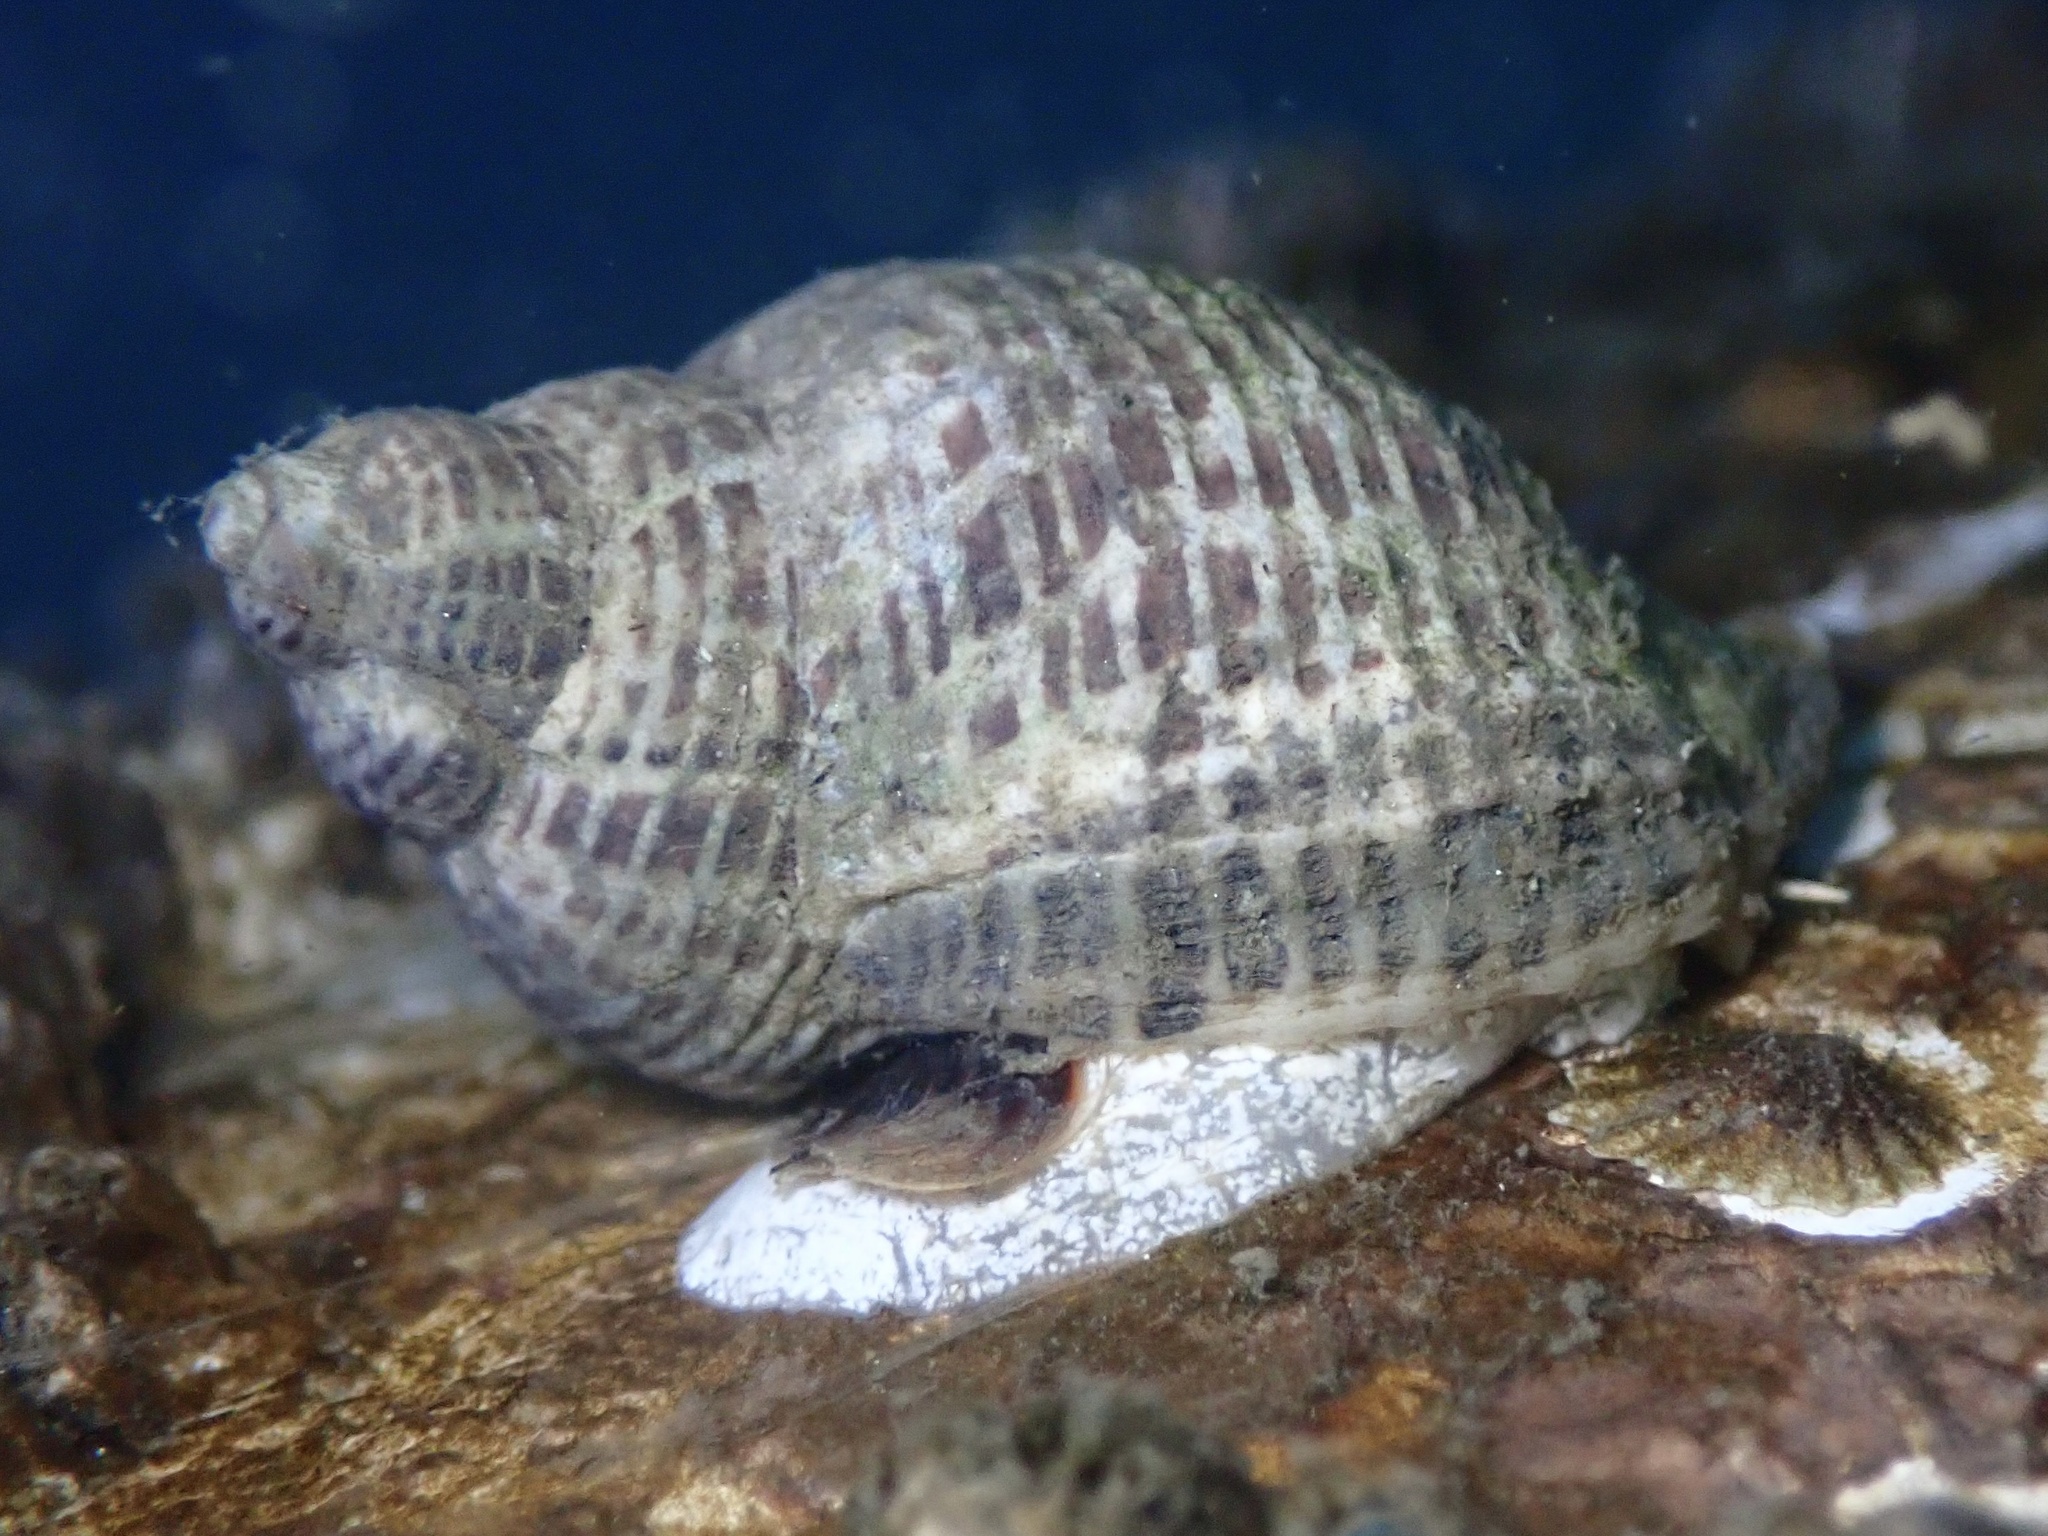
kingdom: Animalia
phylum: Mollusca
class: Gastropoda
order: Neogastropoda
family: Muricidae
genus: Acanthinucella
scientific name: Acanthinucella punctulata
